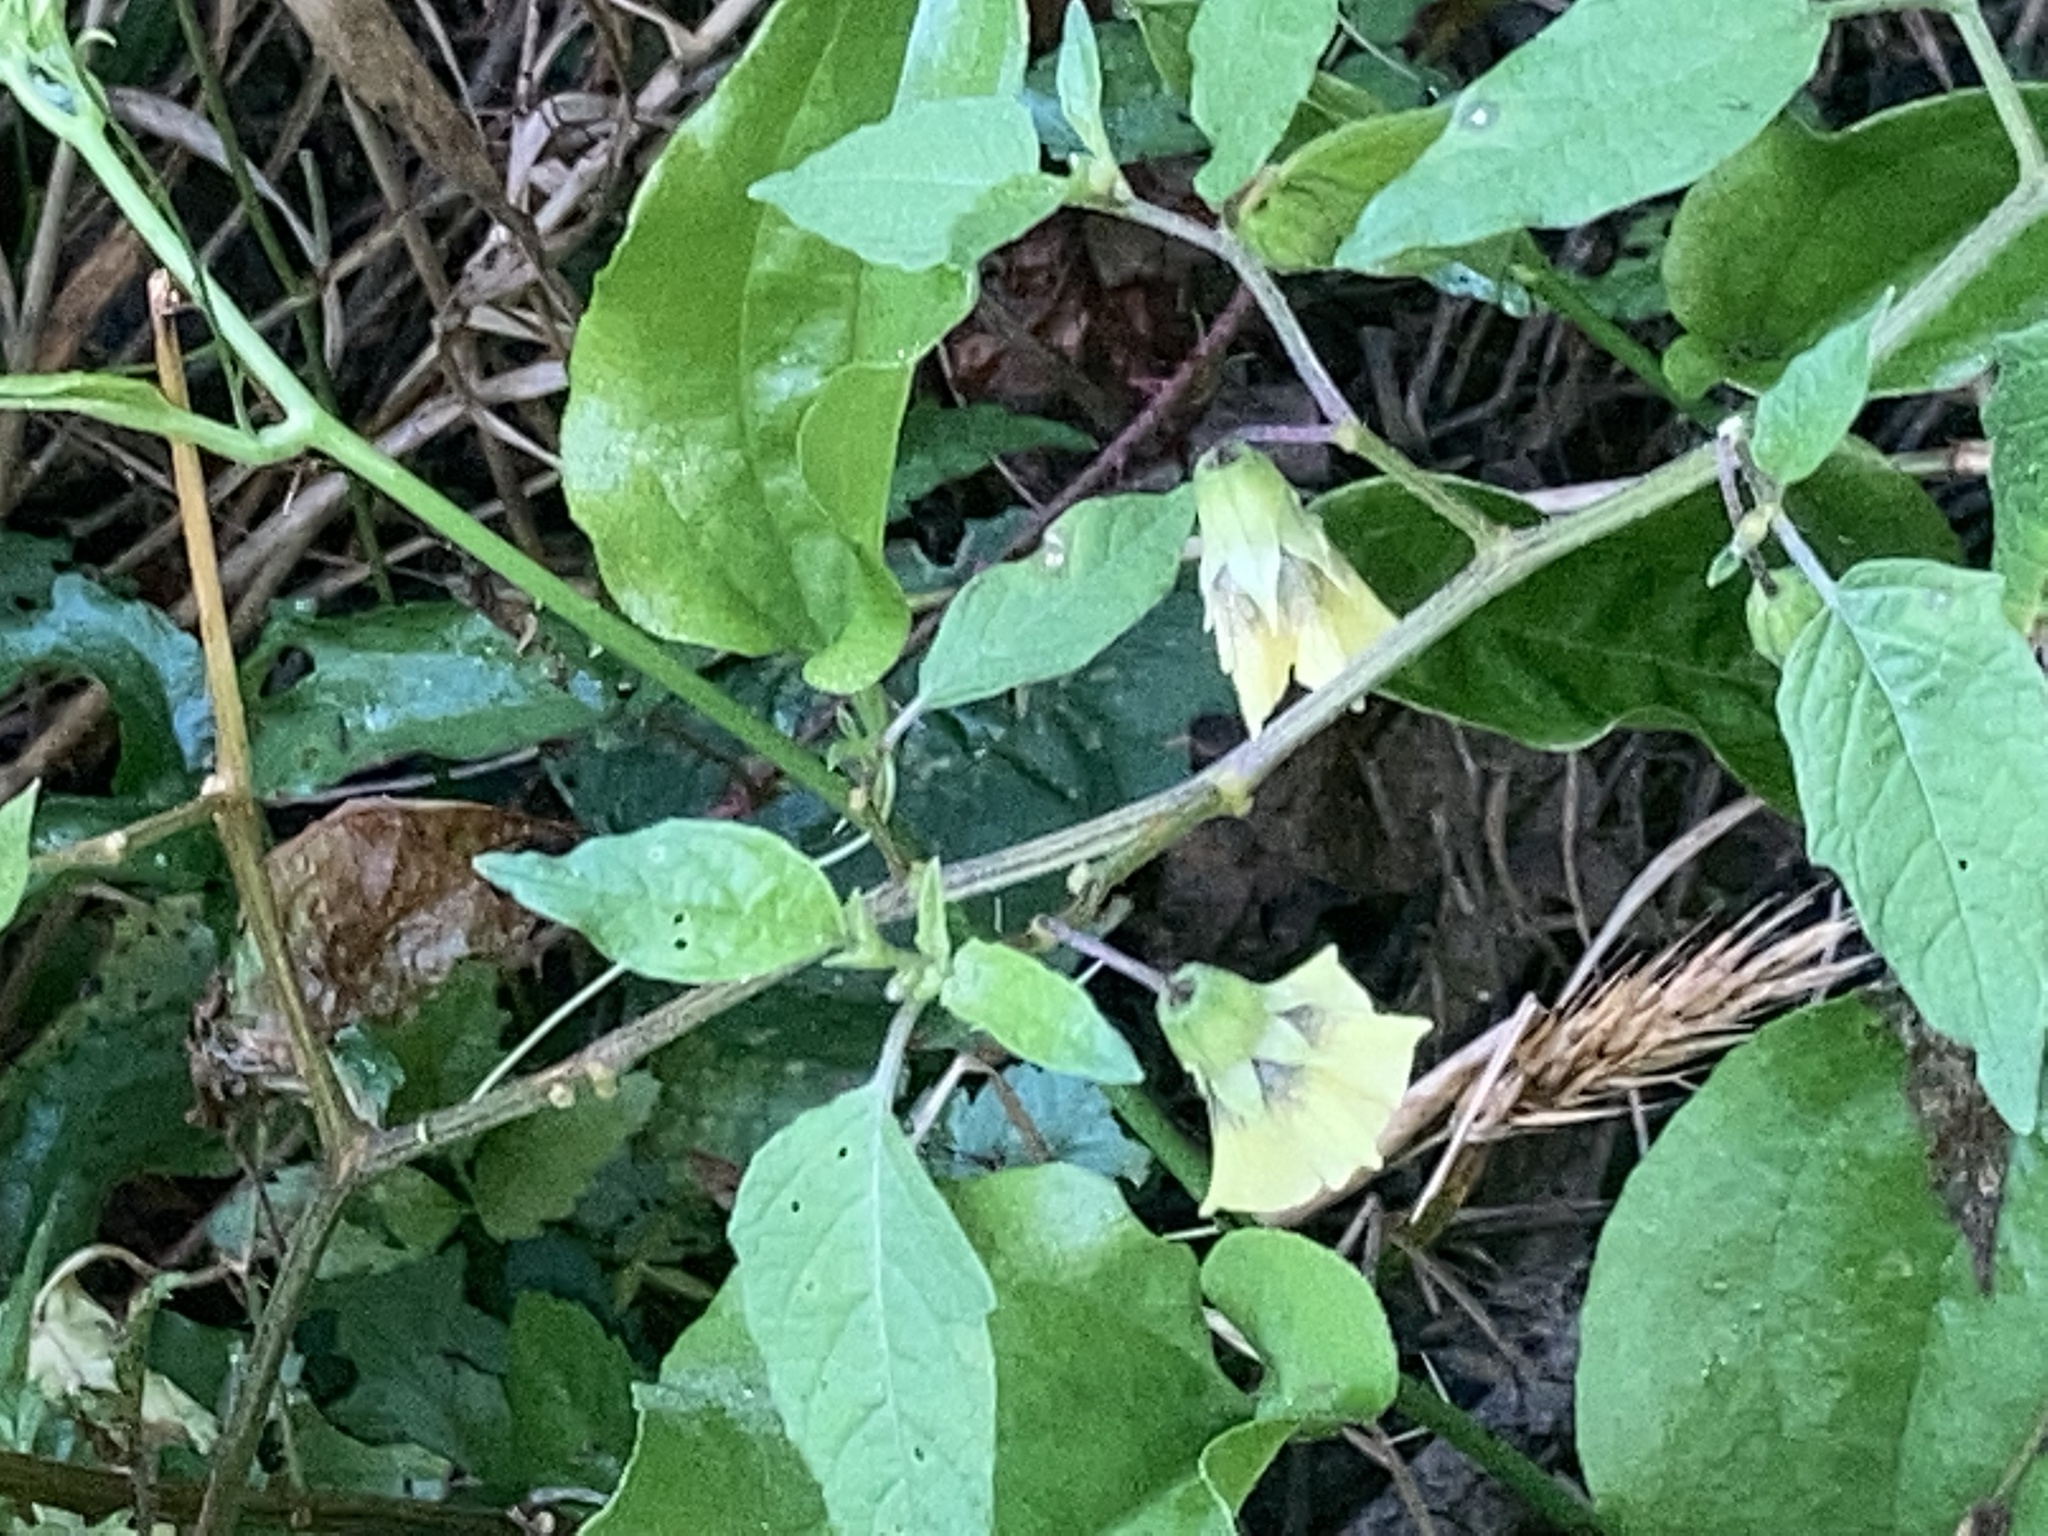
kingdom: Plantae
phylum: Tracheophyta
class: Magnoliopsida
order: Solanales
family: Solanaceae
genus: Physalis
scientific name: Physalis longifolia
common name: Common ground-cherry
